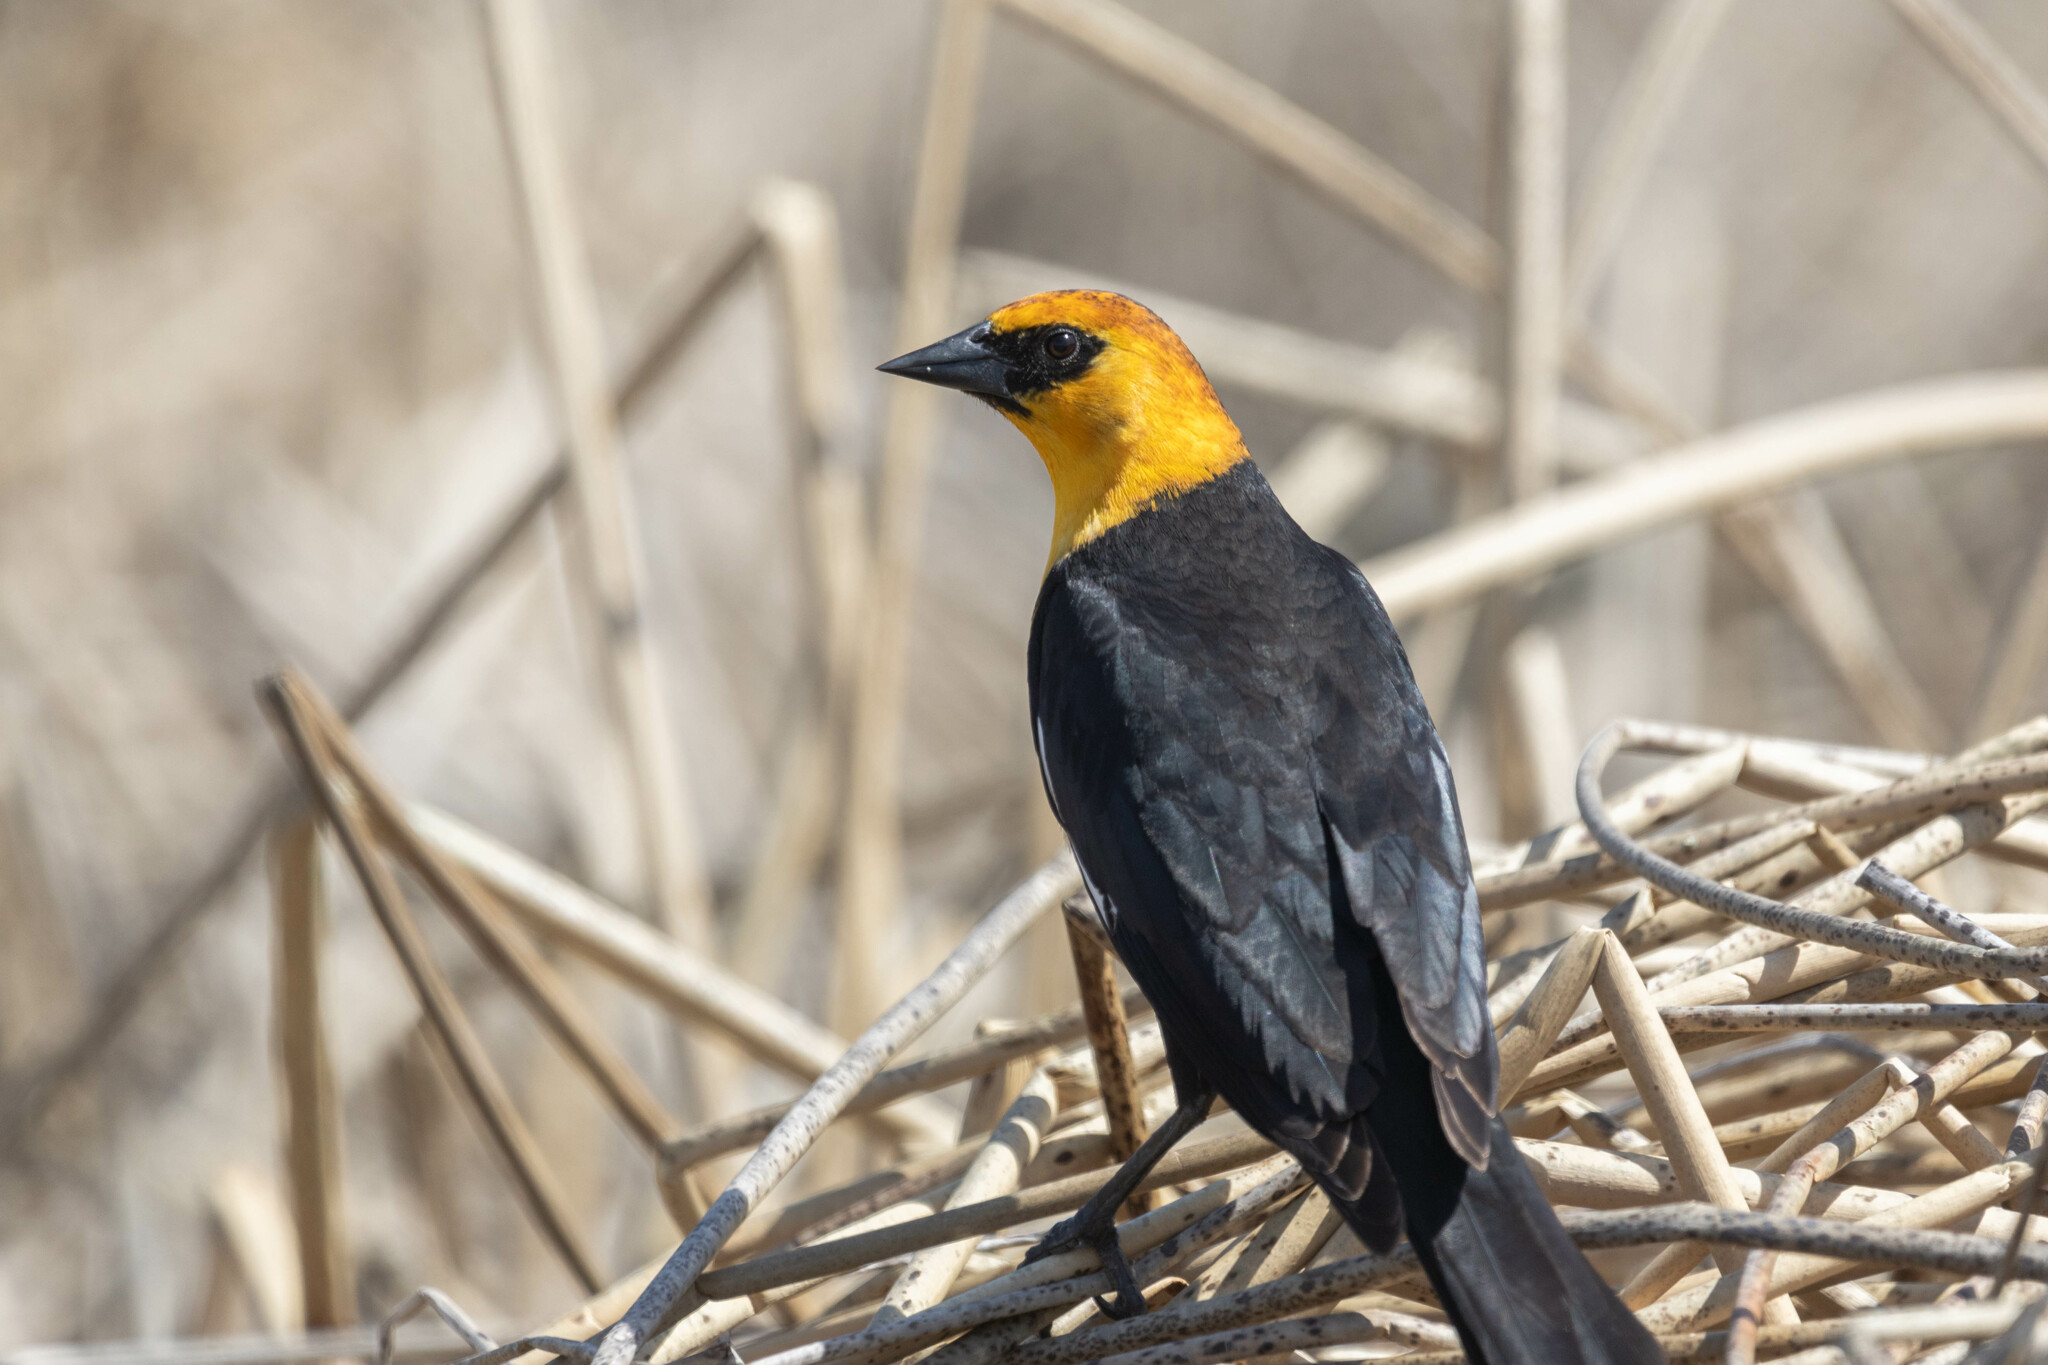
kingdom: Animalia
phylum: Chordata
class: Aves
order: Passeriformes
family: Icteridae
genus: Xanthocephalus
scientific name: Xanthocephalus xanthocephalus
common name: Yellow-headed blackbird
